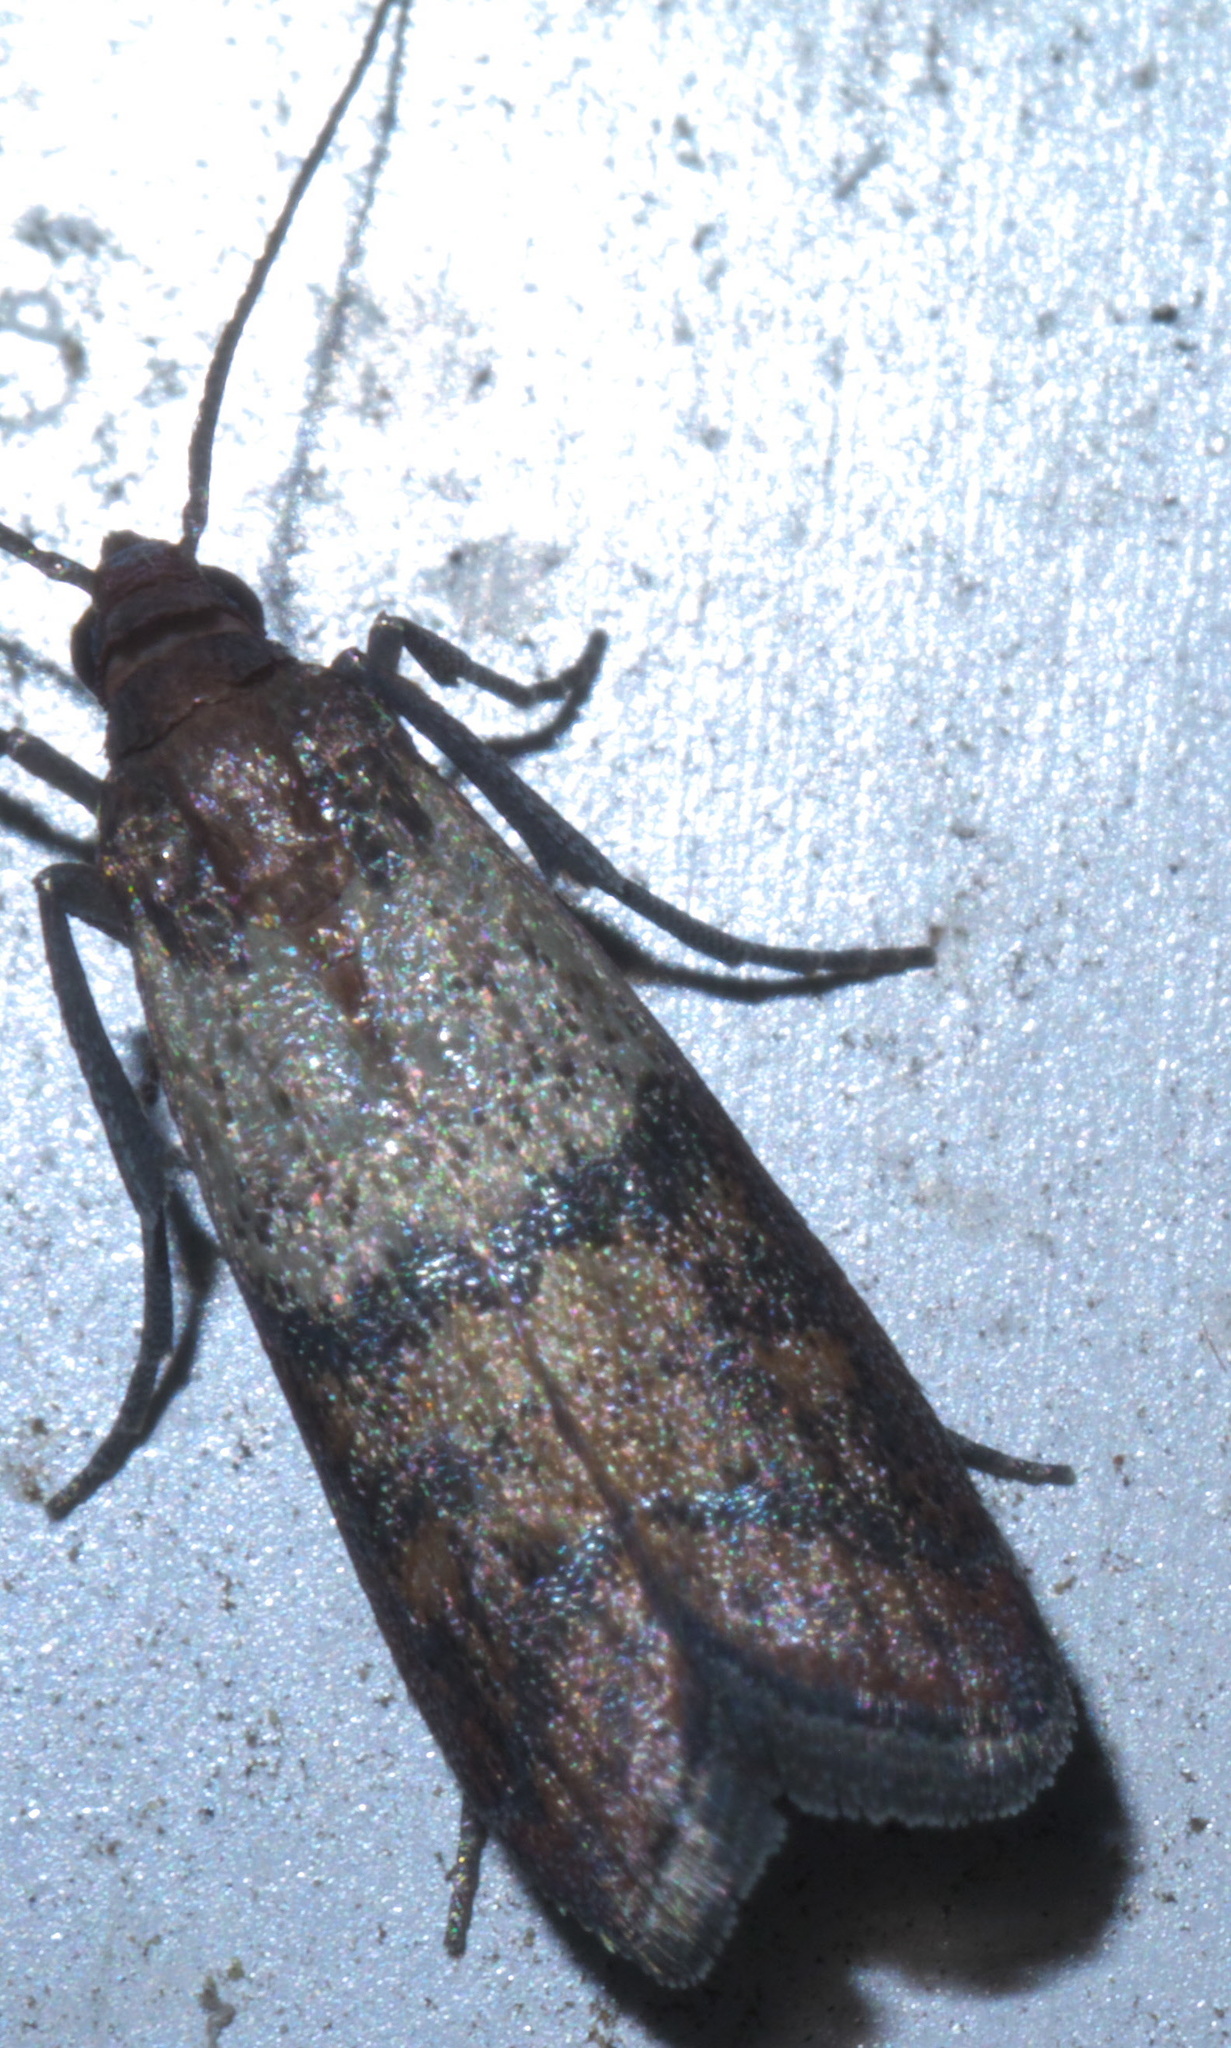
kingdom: Animalia
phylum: Arthropoda
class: Insecta
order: Lepidoptera
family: Pyralidae
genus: Plodia
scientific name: Plodia interpunctella
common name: Indian meal moth
